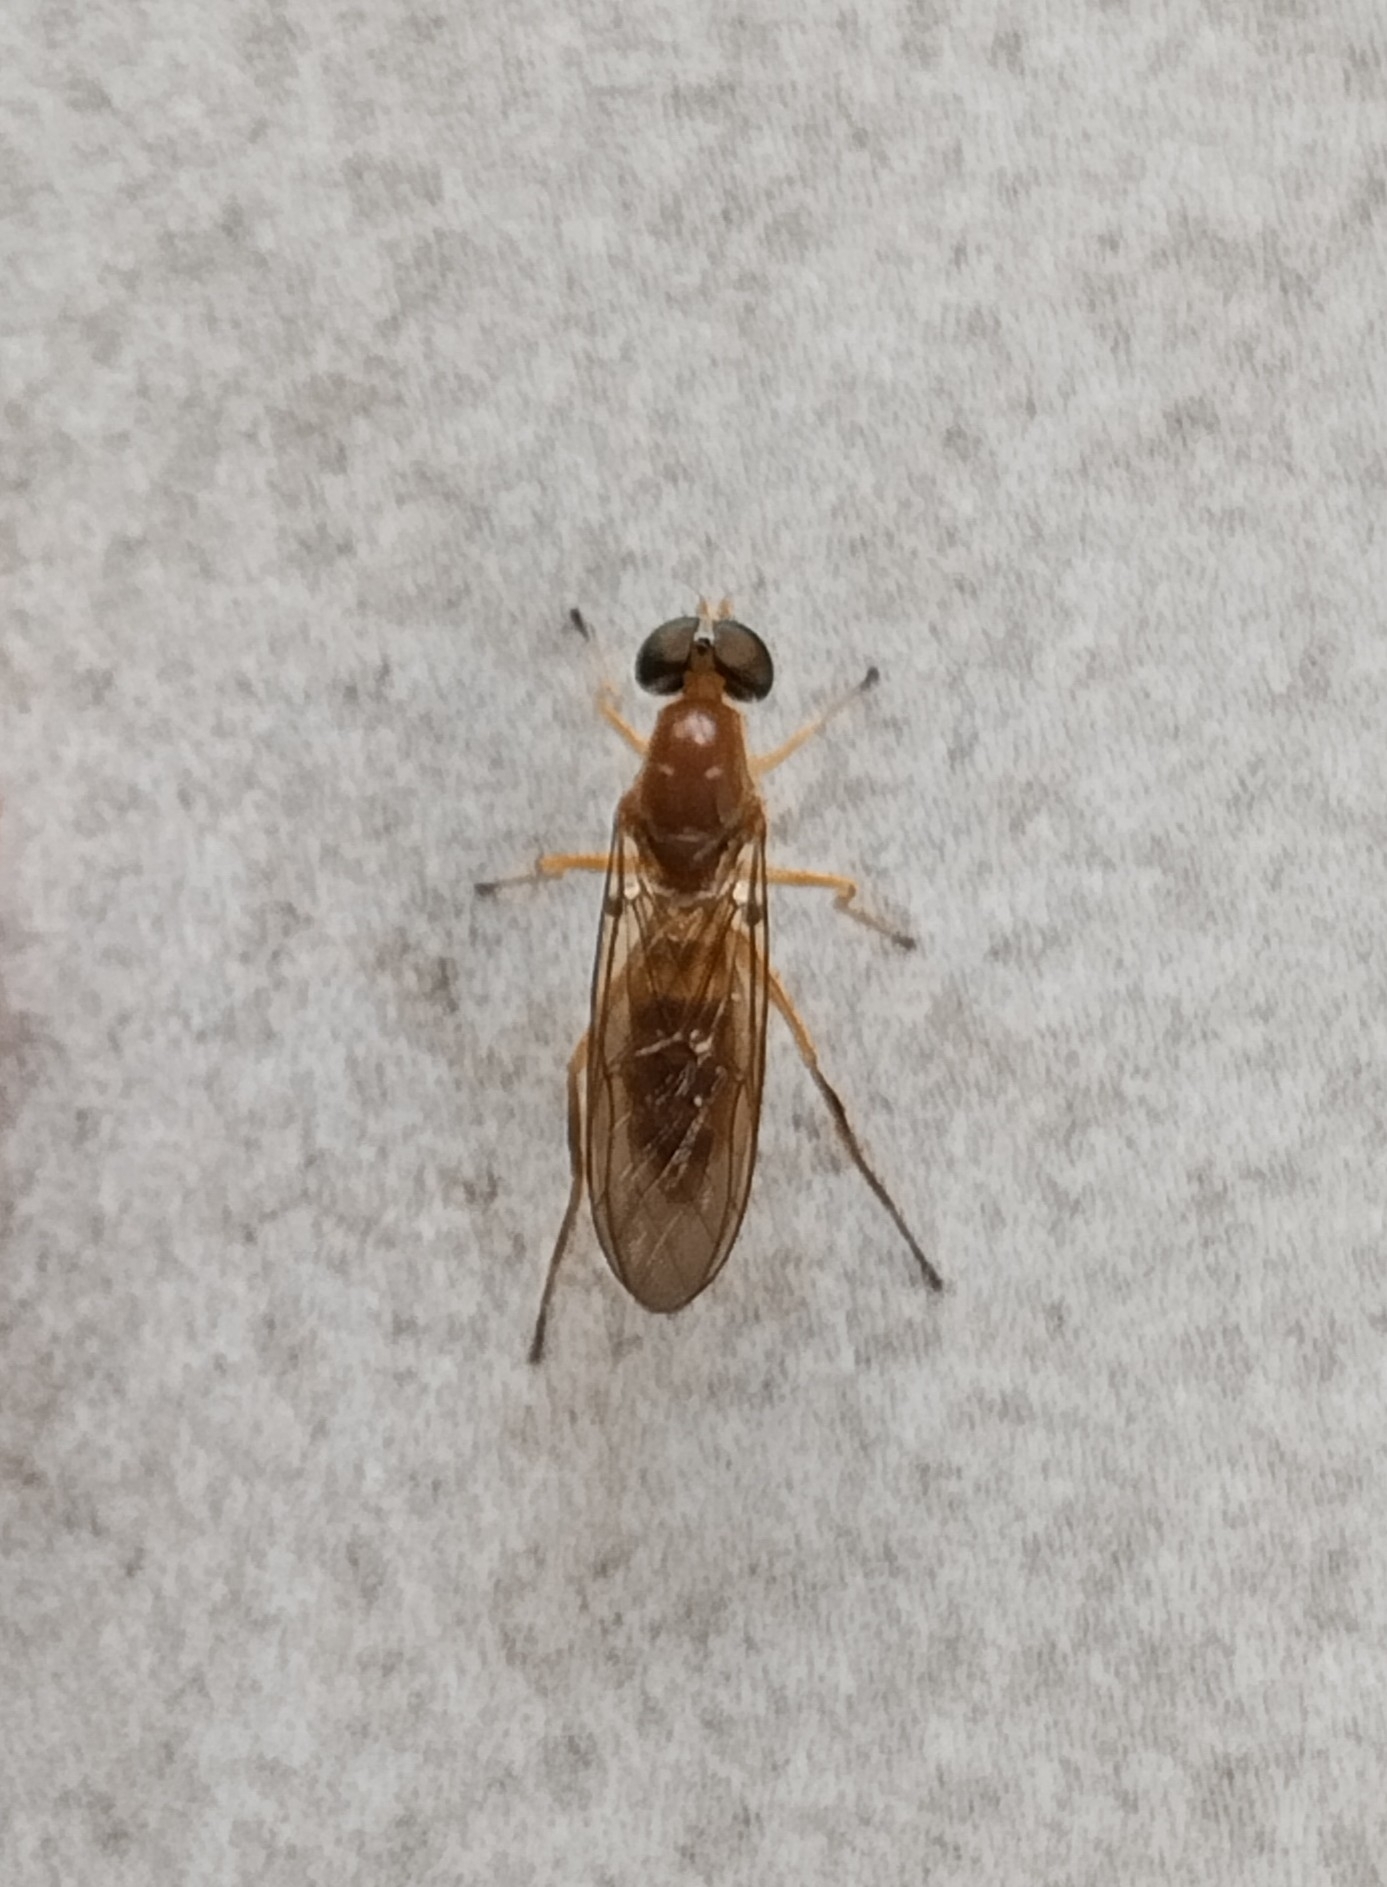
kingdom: Animalia
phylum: Arthropoda
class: Insecta
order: Diptera
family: Stratiomyidae
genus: Ptecticus
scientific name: Ptecticus trivittatus
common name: Compost fly
